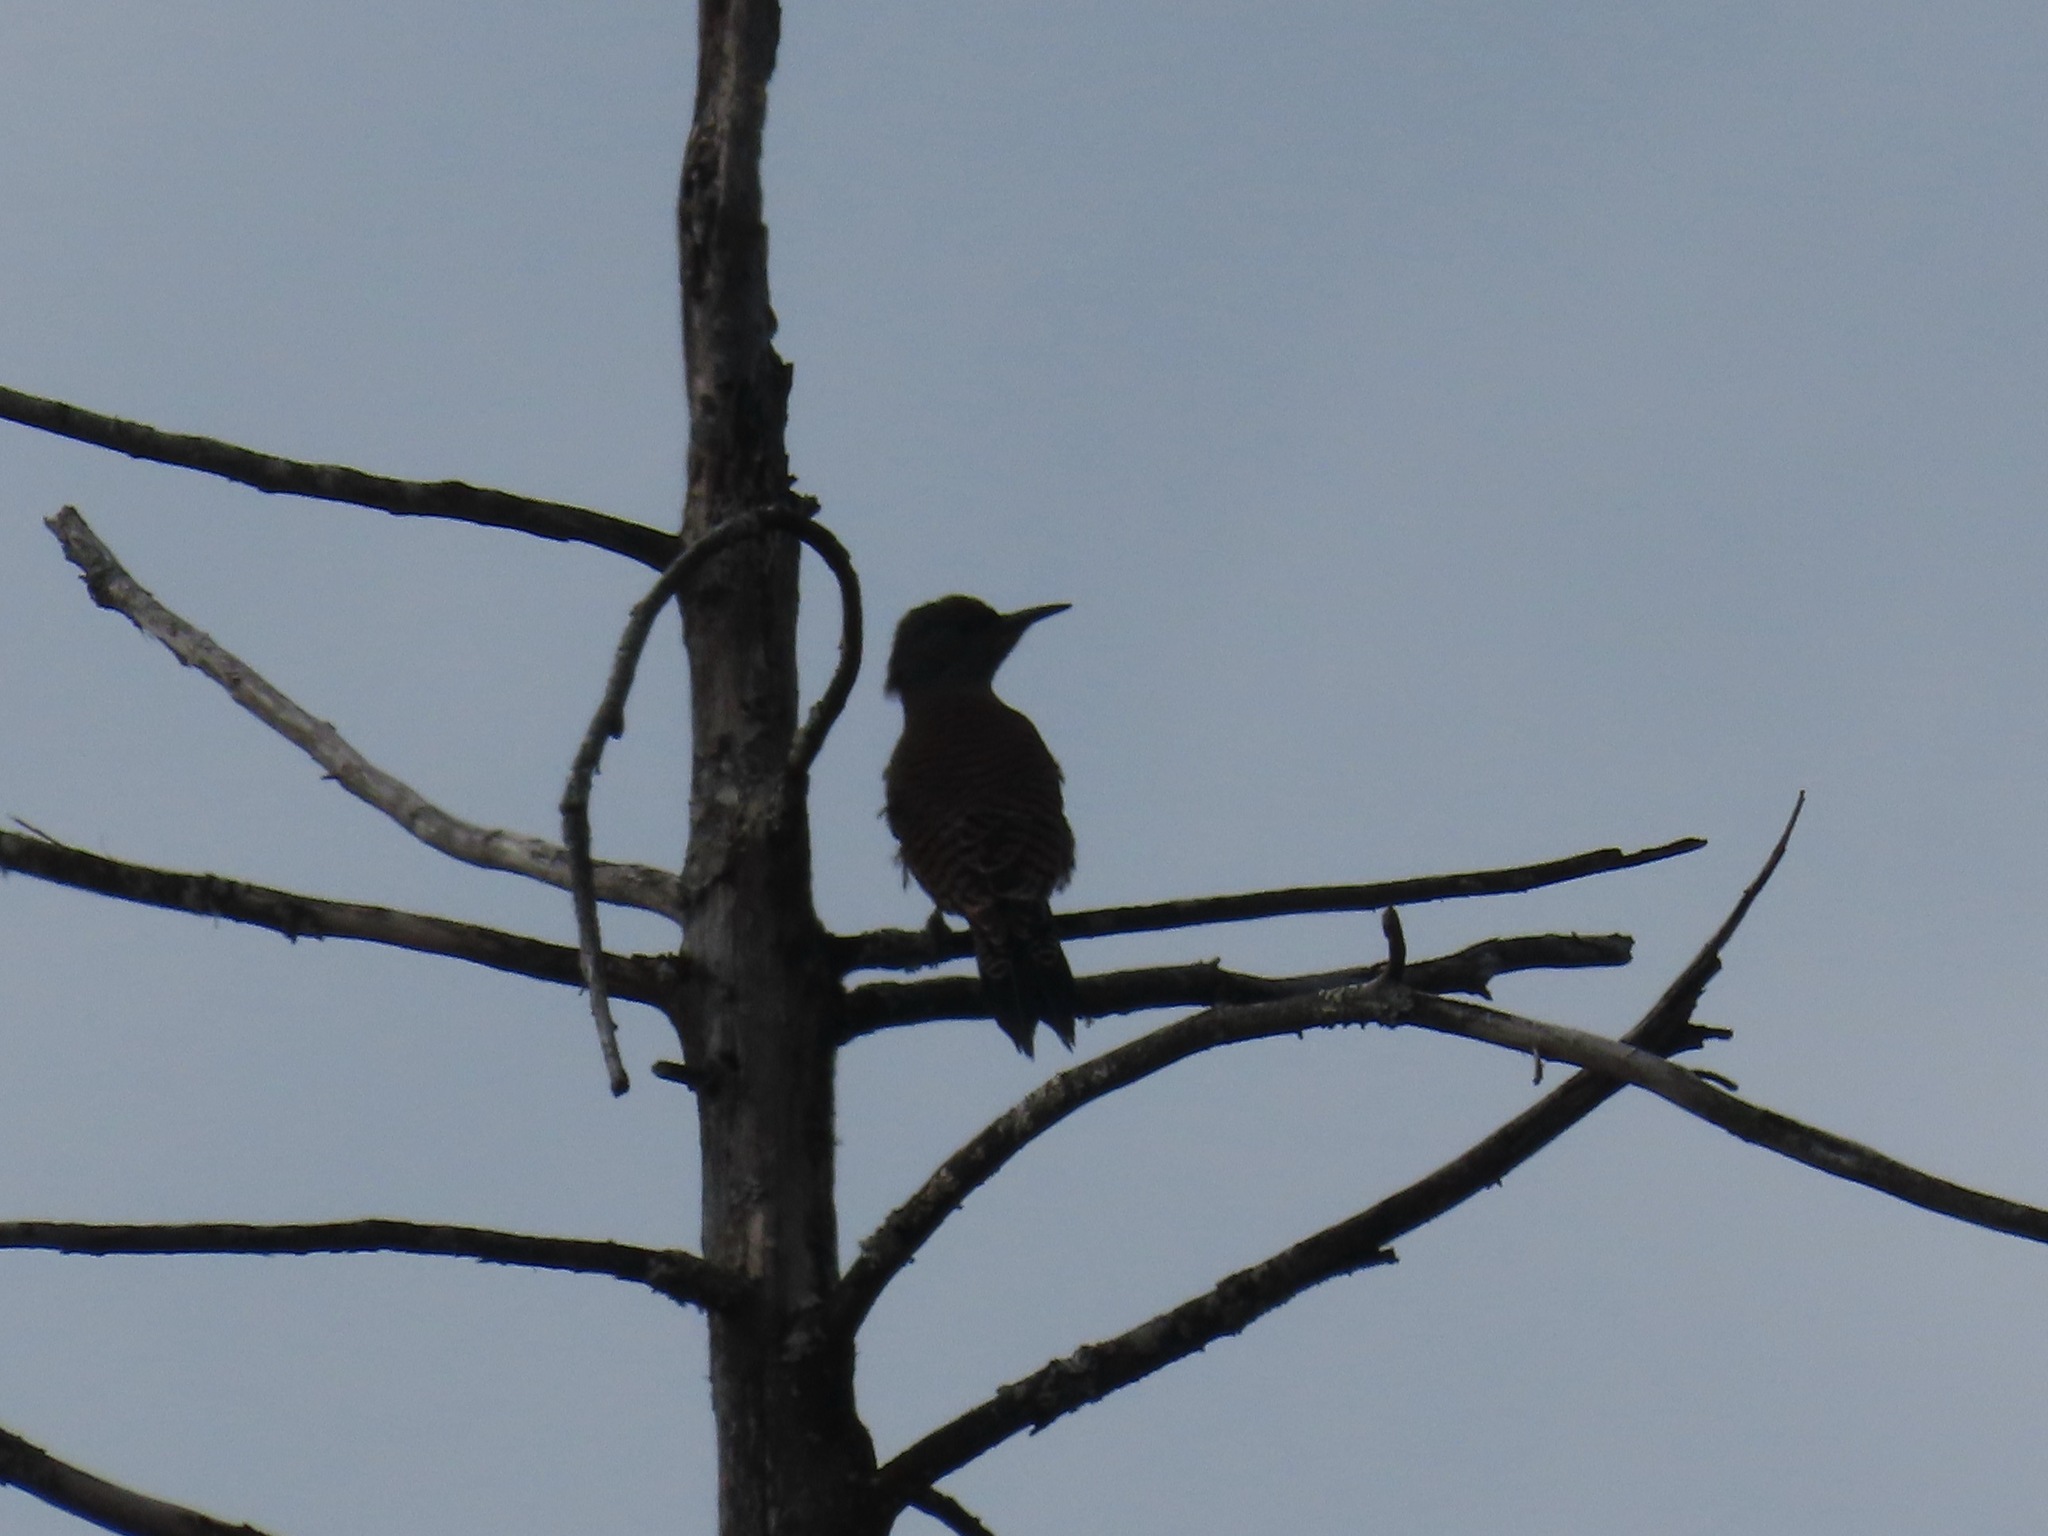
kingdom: Animalia
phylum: Chordata
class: Aves
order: Piciformes
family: Picidae
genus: Colaptes
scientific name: Colaptes auratus
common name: Northern flicker
